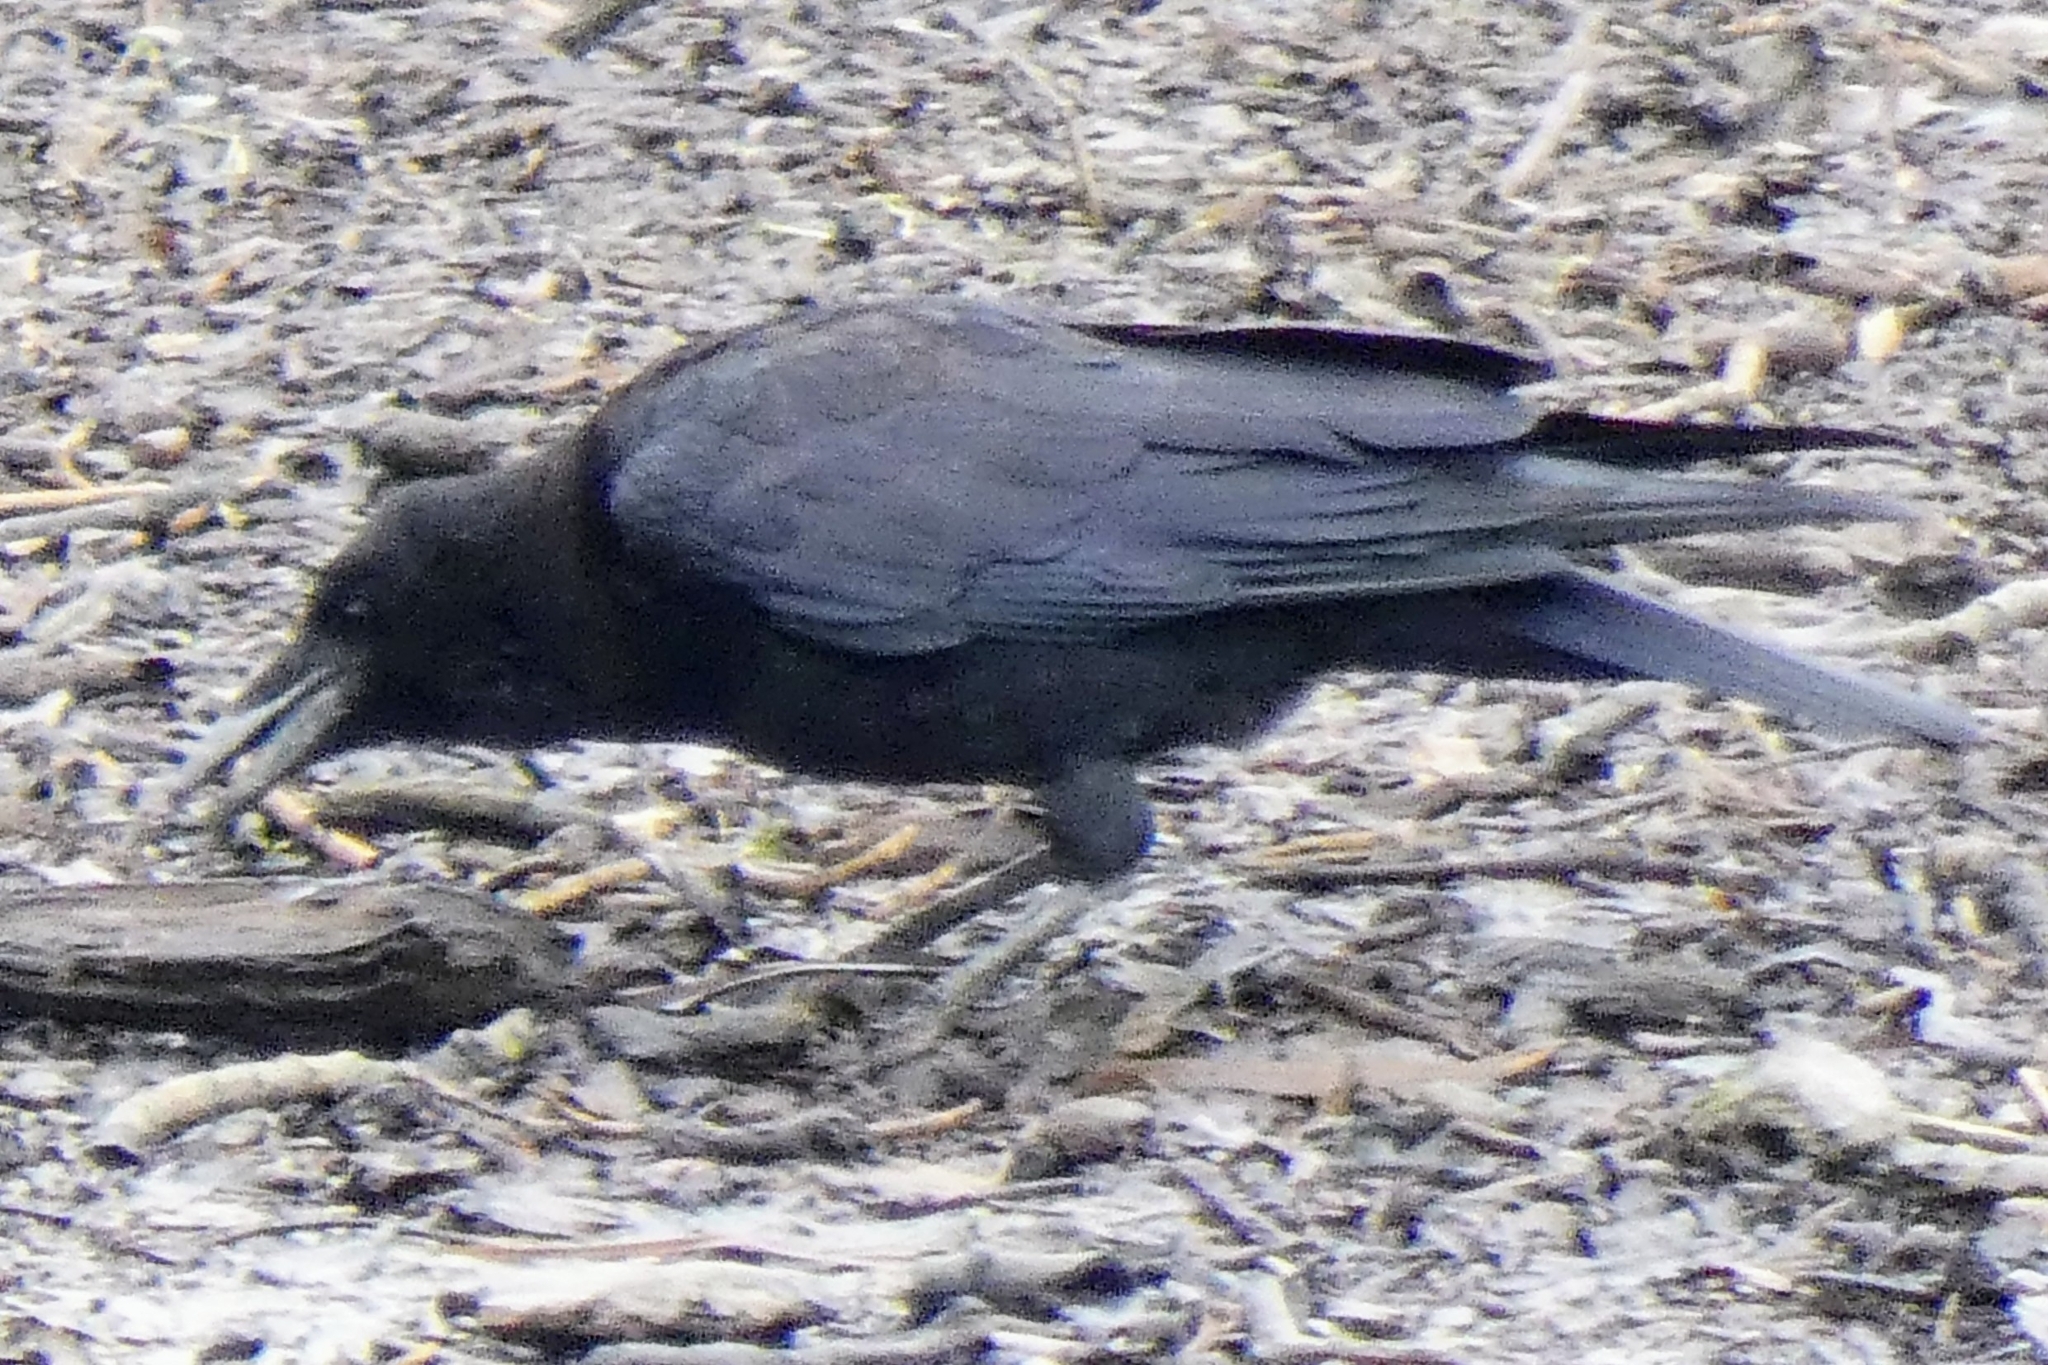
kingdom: Animalia
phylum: Chordata
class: Aves
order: Passeriformes
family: Corvidae
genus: Corvus
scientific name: Corvus corone
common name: Carrion crow
